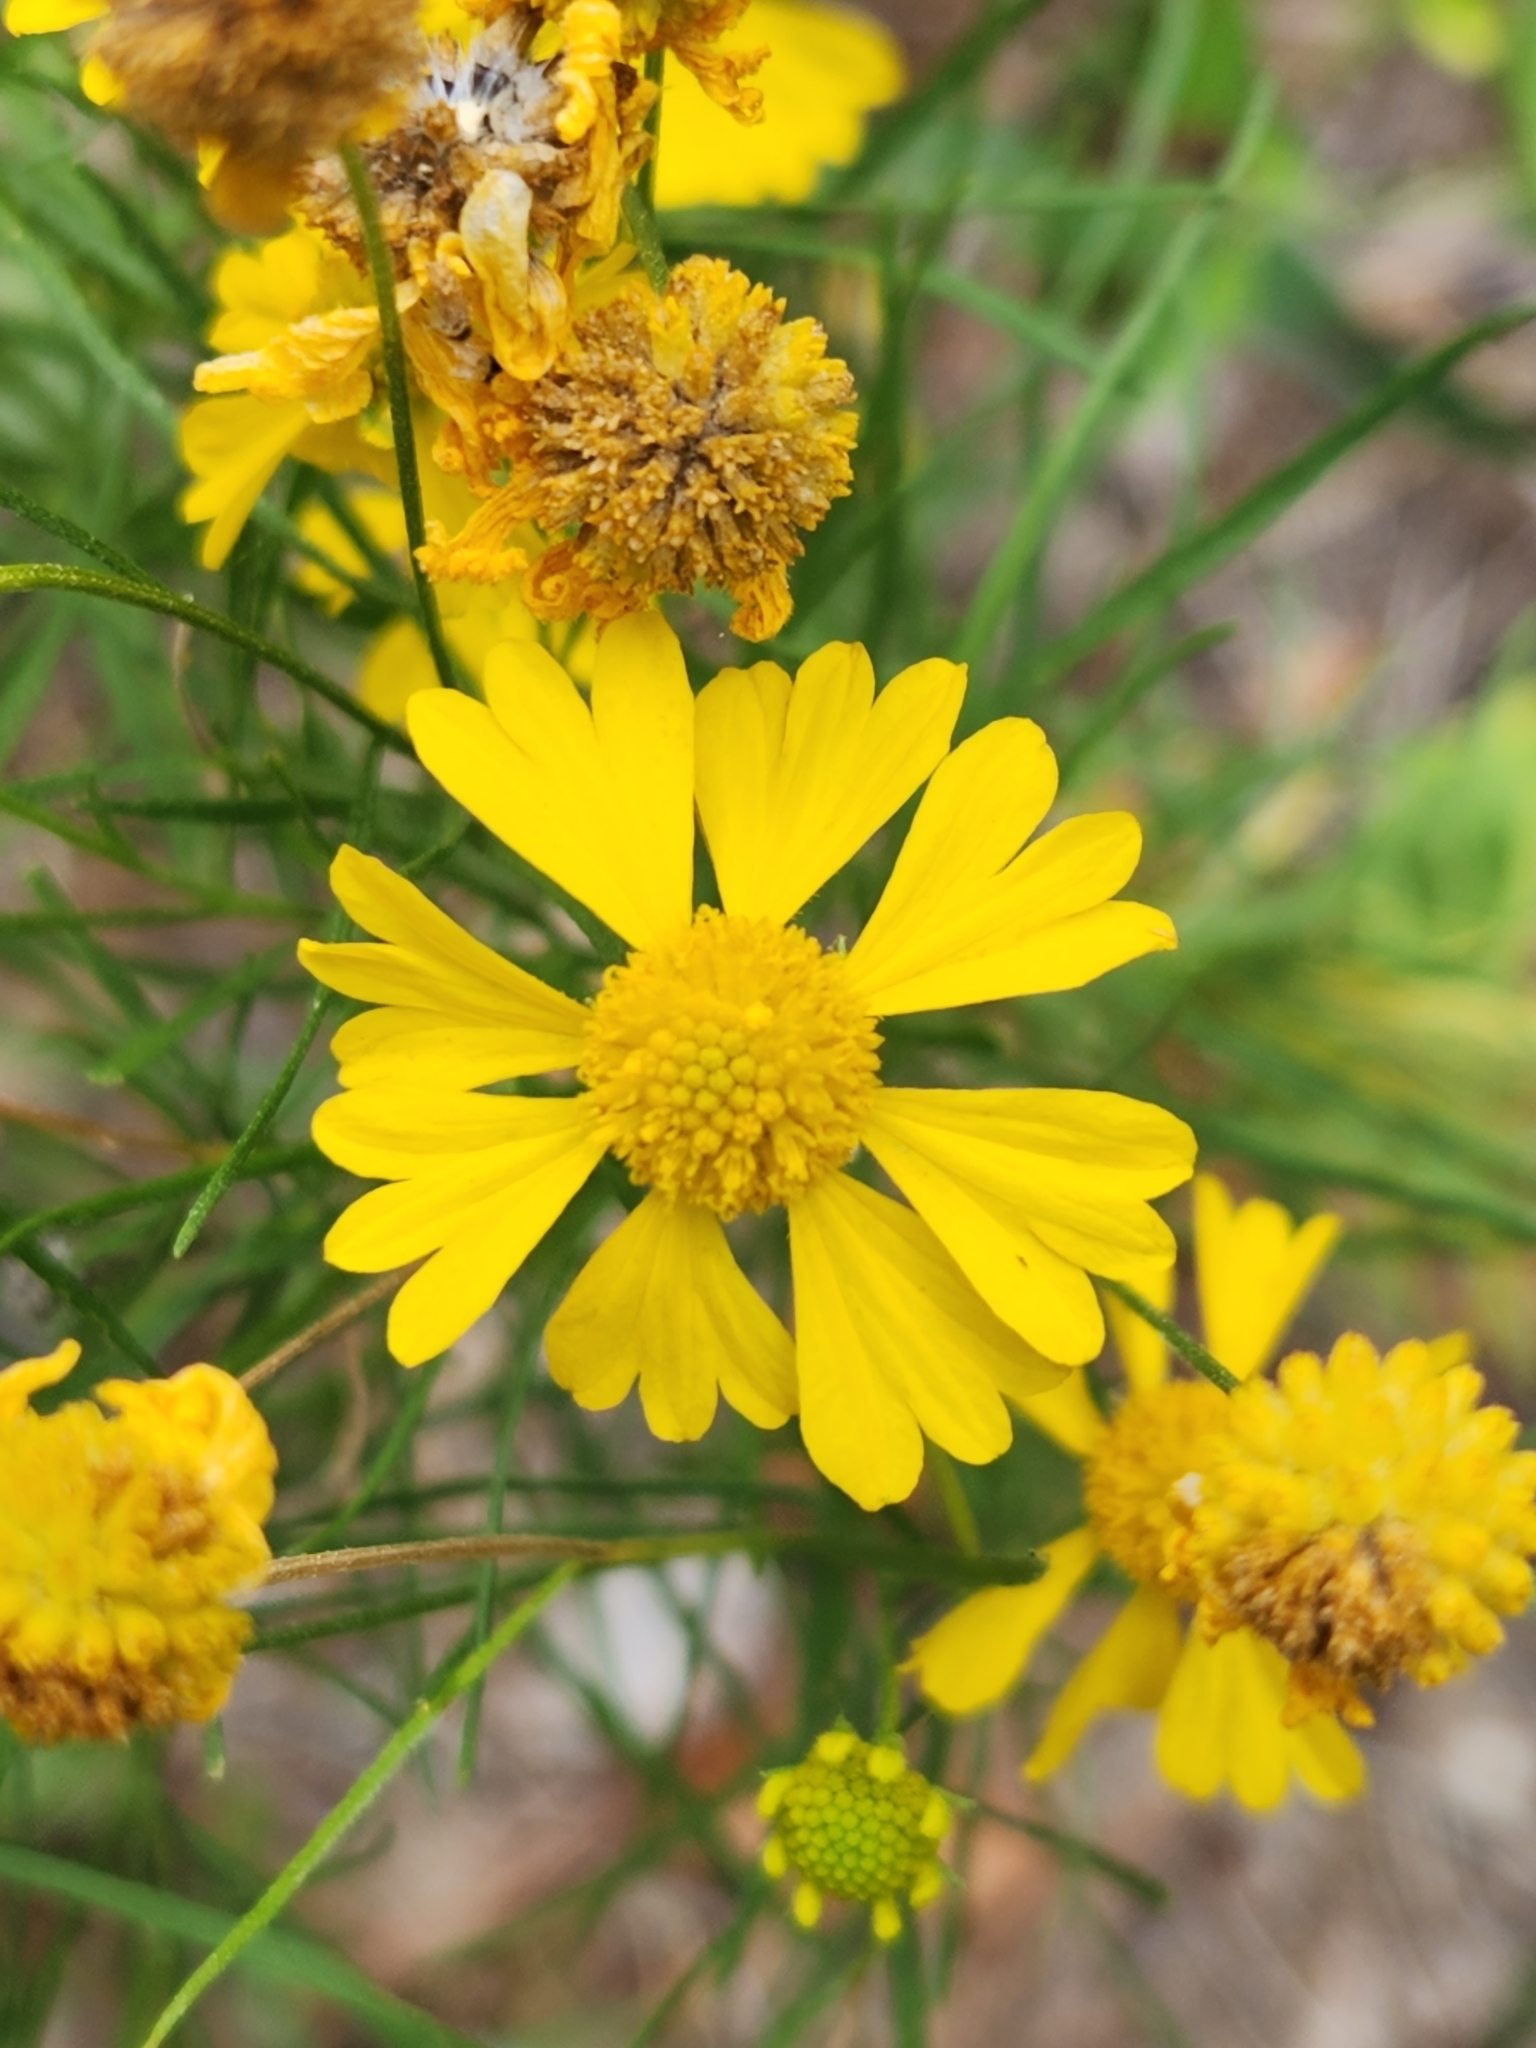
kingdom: Plantae
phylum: Tracheophyta
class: Magnoliopsida
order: Asterales
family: Asteraceae
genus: Helenium
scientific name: Helenium amarum
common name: Bitter sneezeweed
